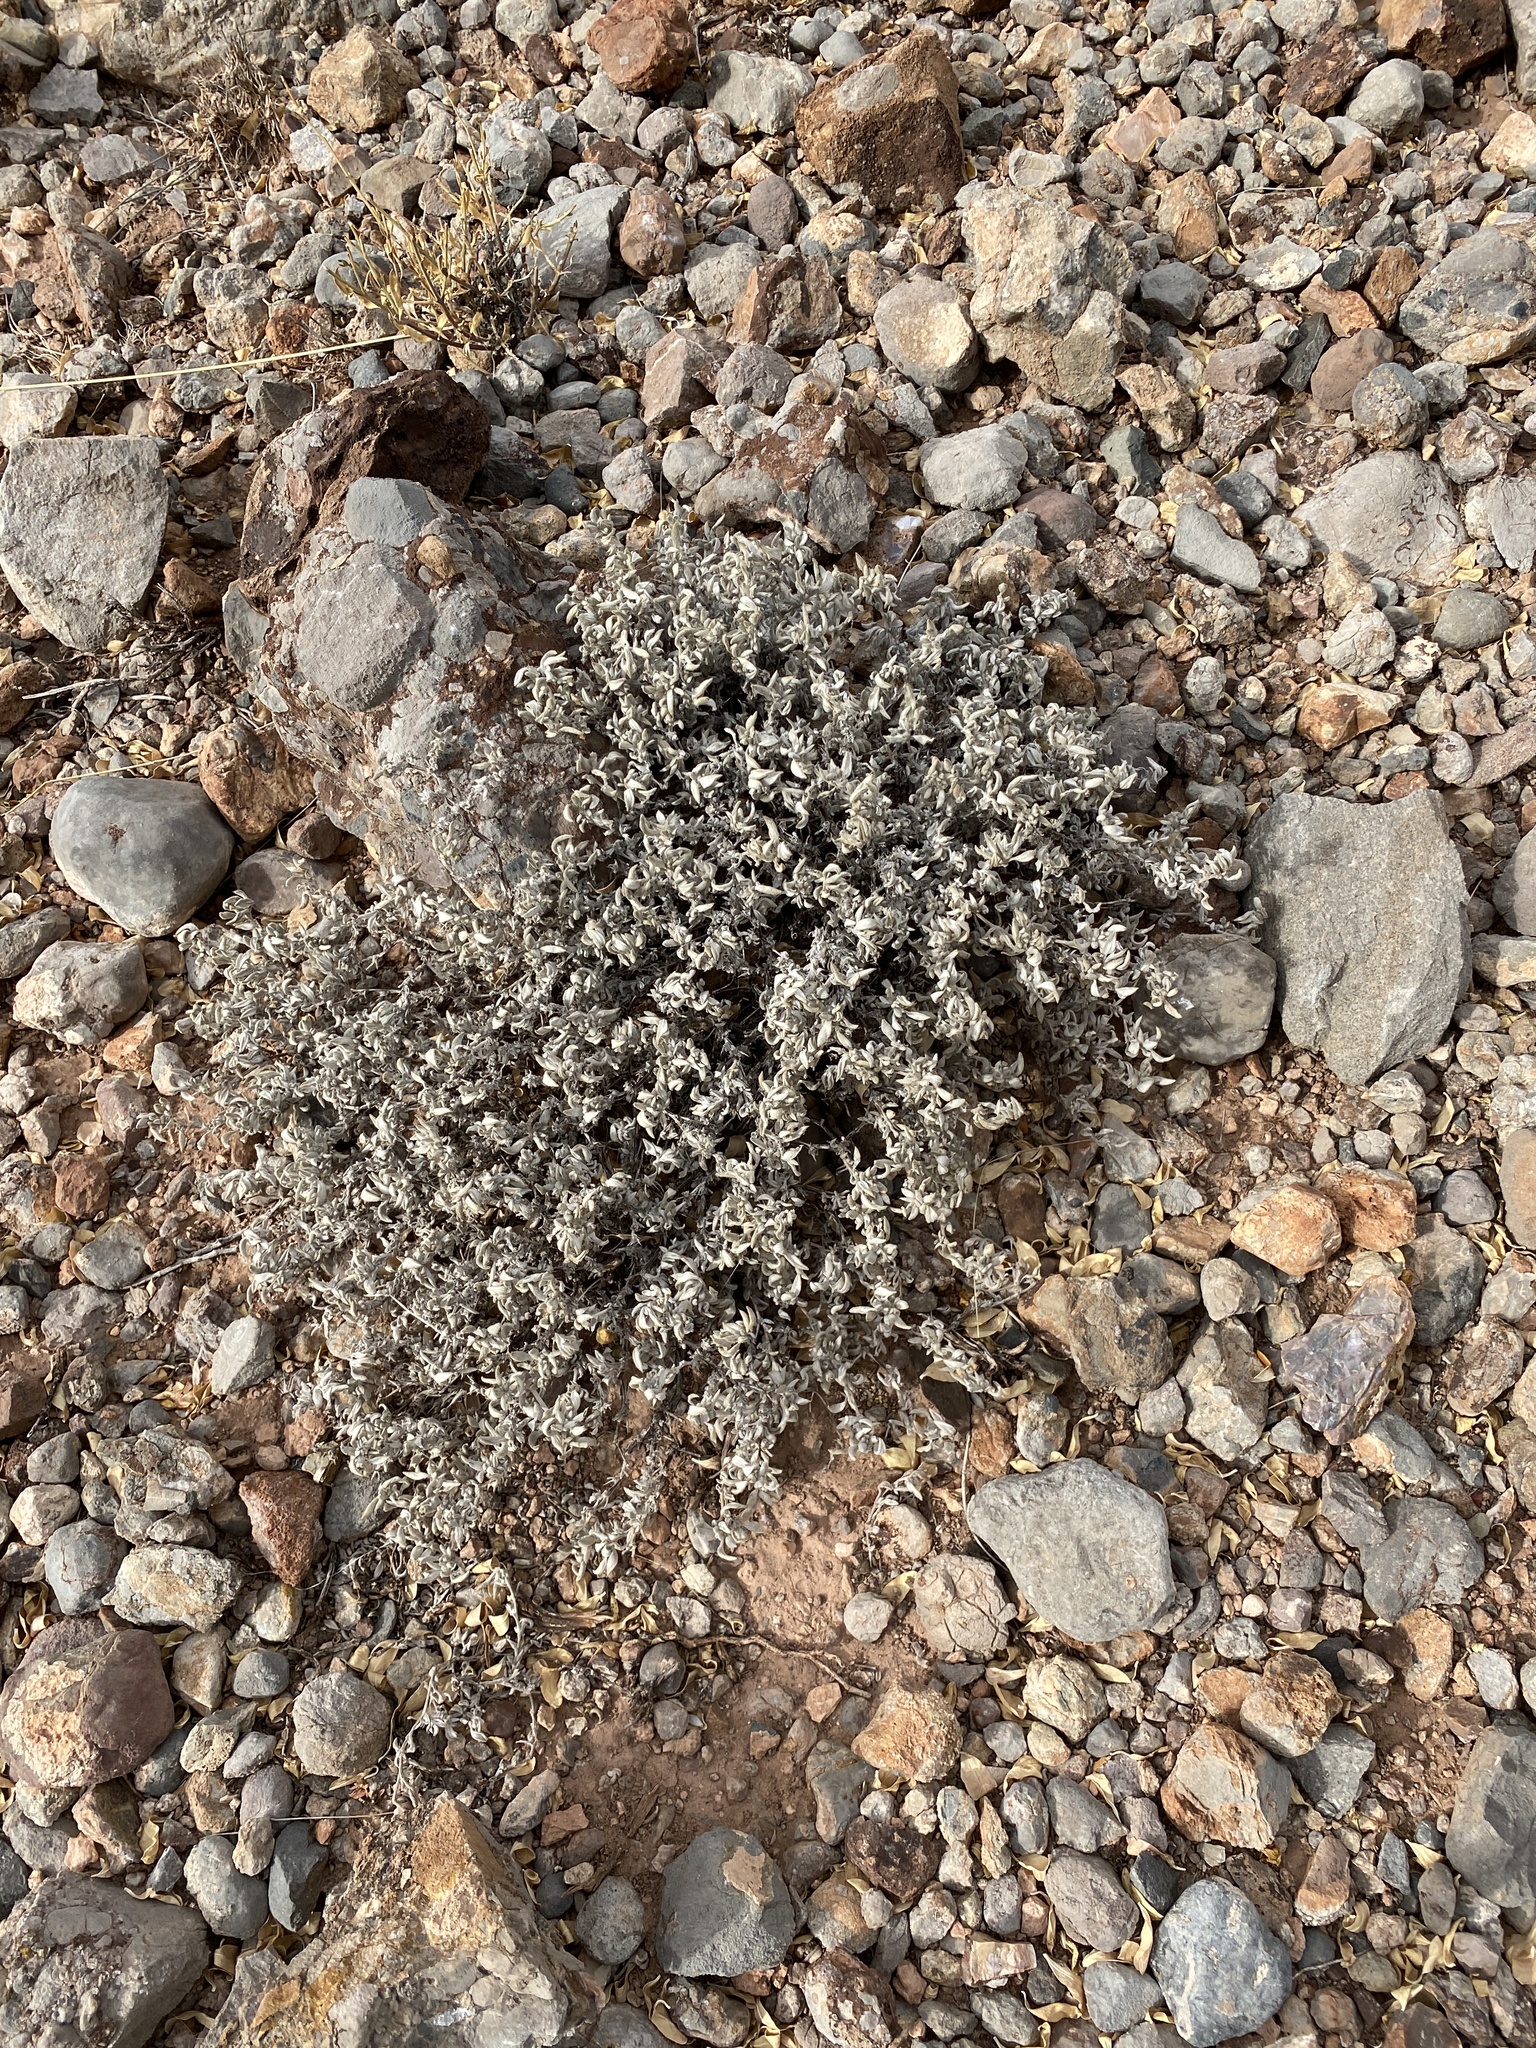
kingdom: Plantae
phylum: Tracheophyta
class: Magnoliopsida
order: Boraginales
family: Ehretiaceae
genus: Tiquilia
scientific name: Tiquilia canescens
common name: Hairy tiquilia
